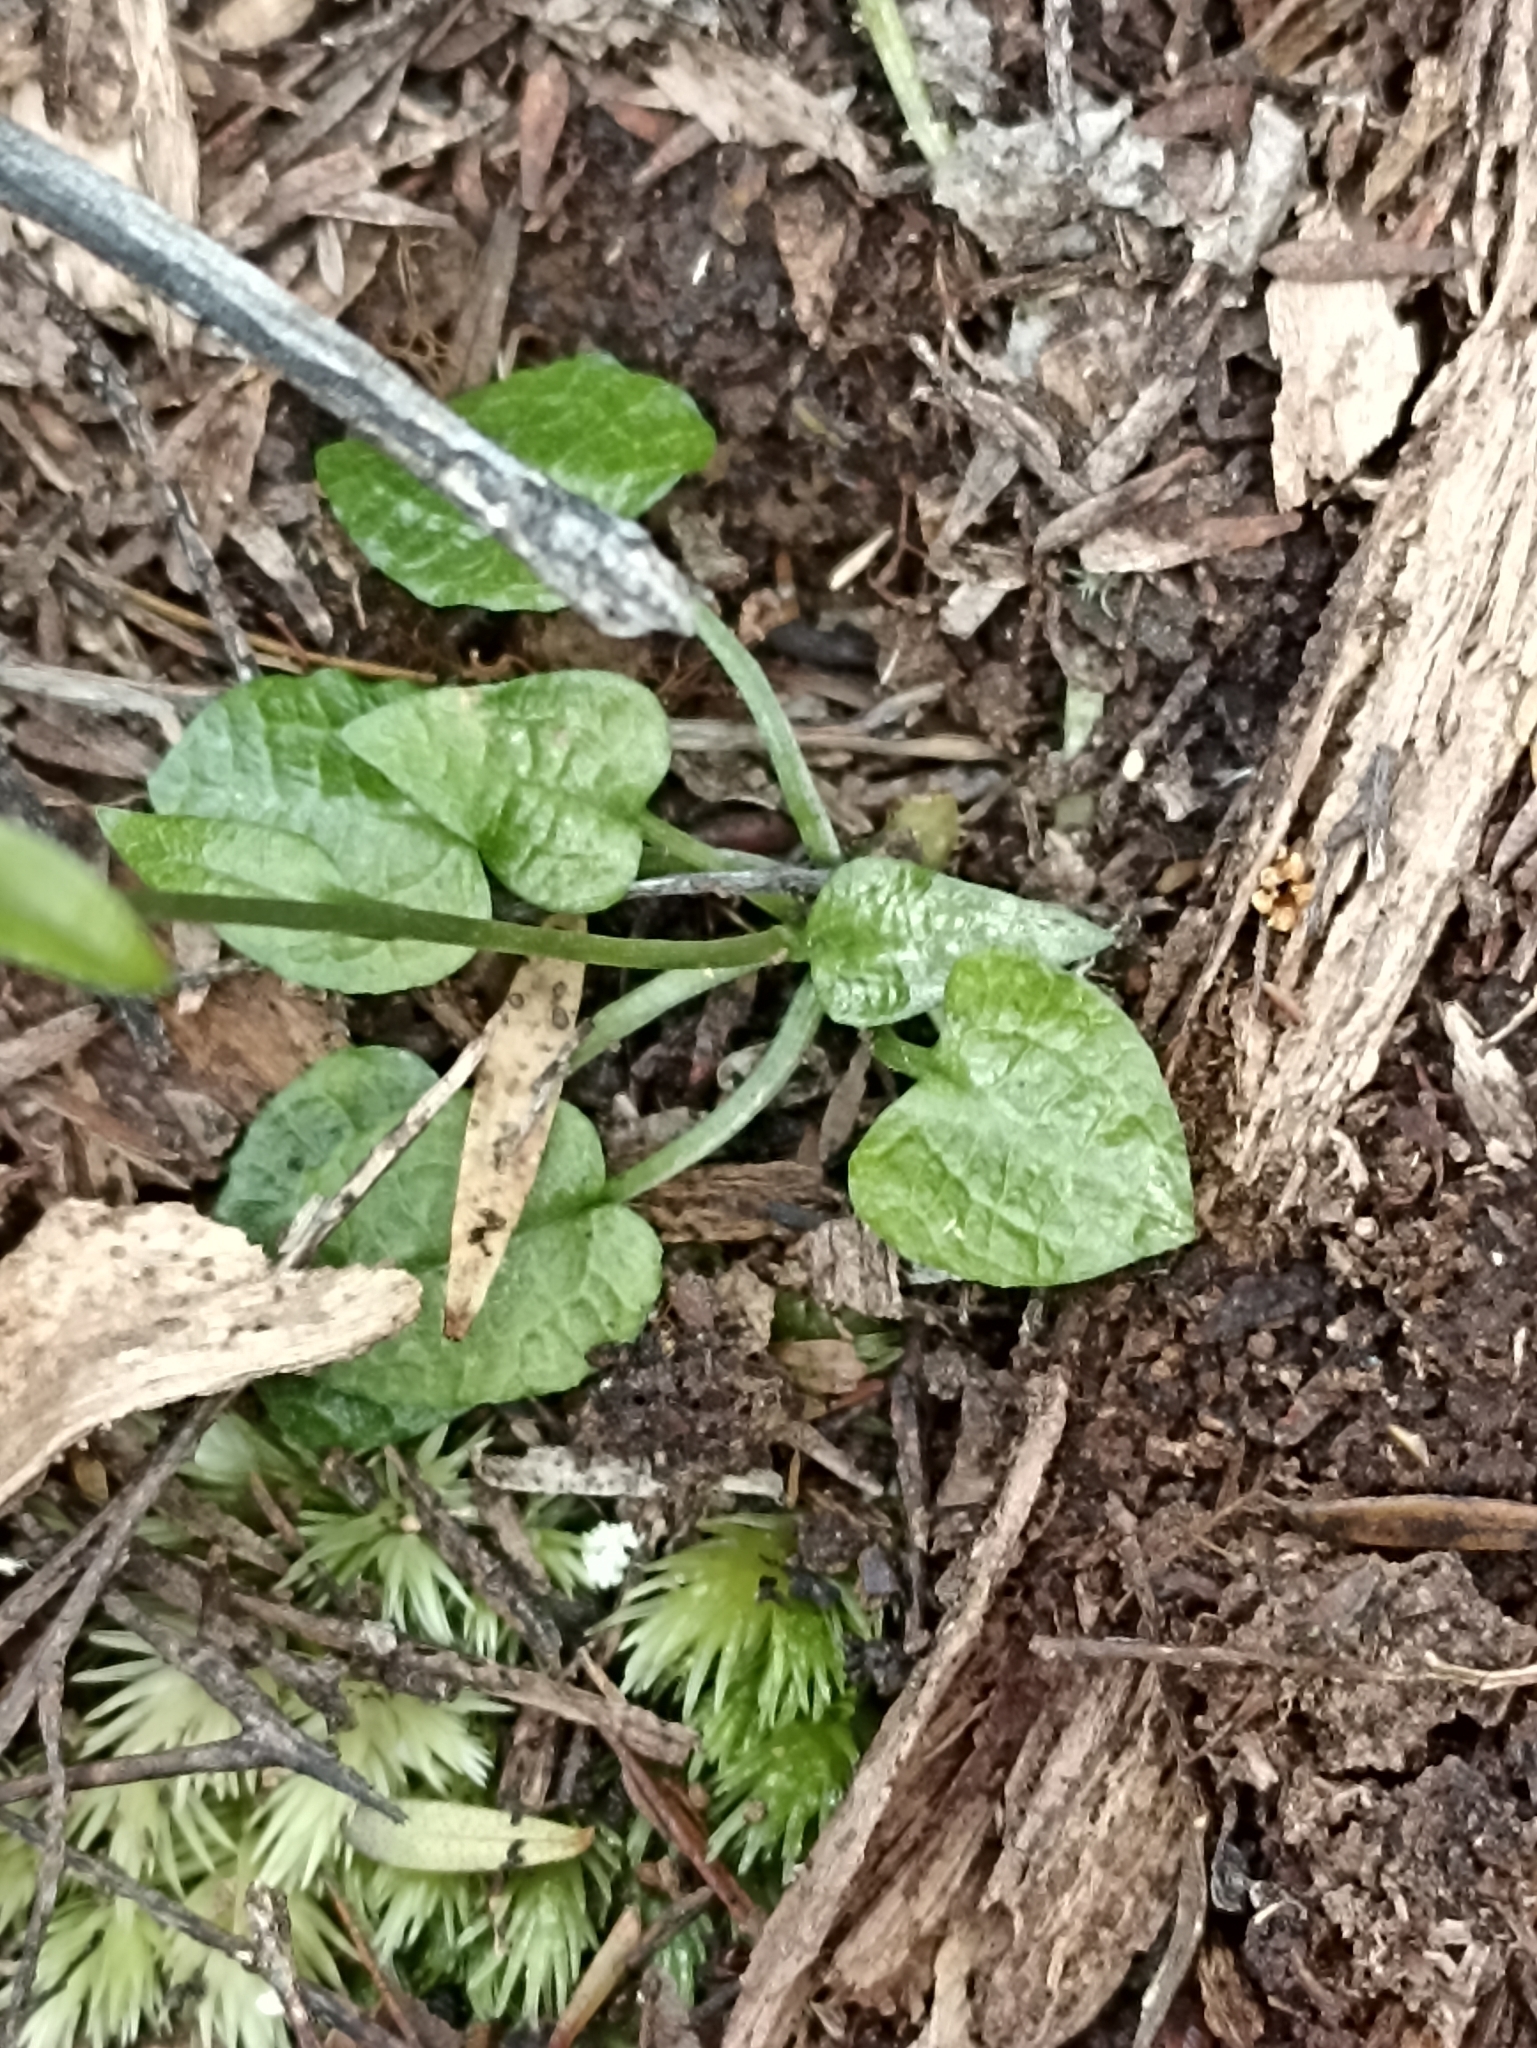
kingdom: Plantae
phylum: Tracheophyta
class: Liliopsida
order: Asparagales
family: Orchidaceae
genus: Pterostylis
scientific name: Pterostylis trullifolia
